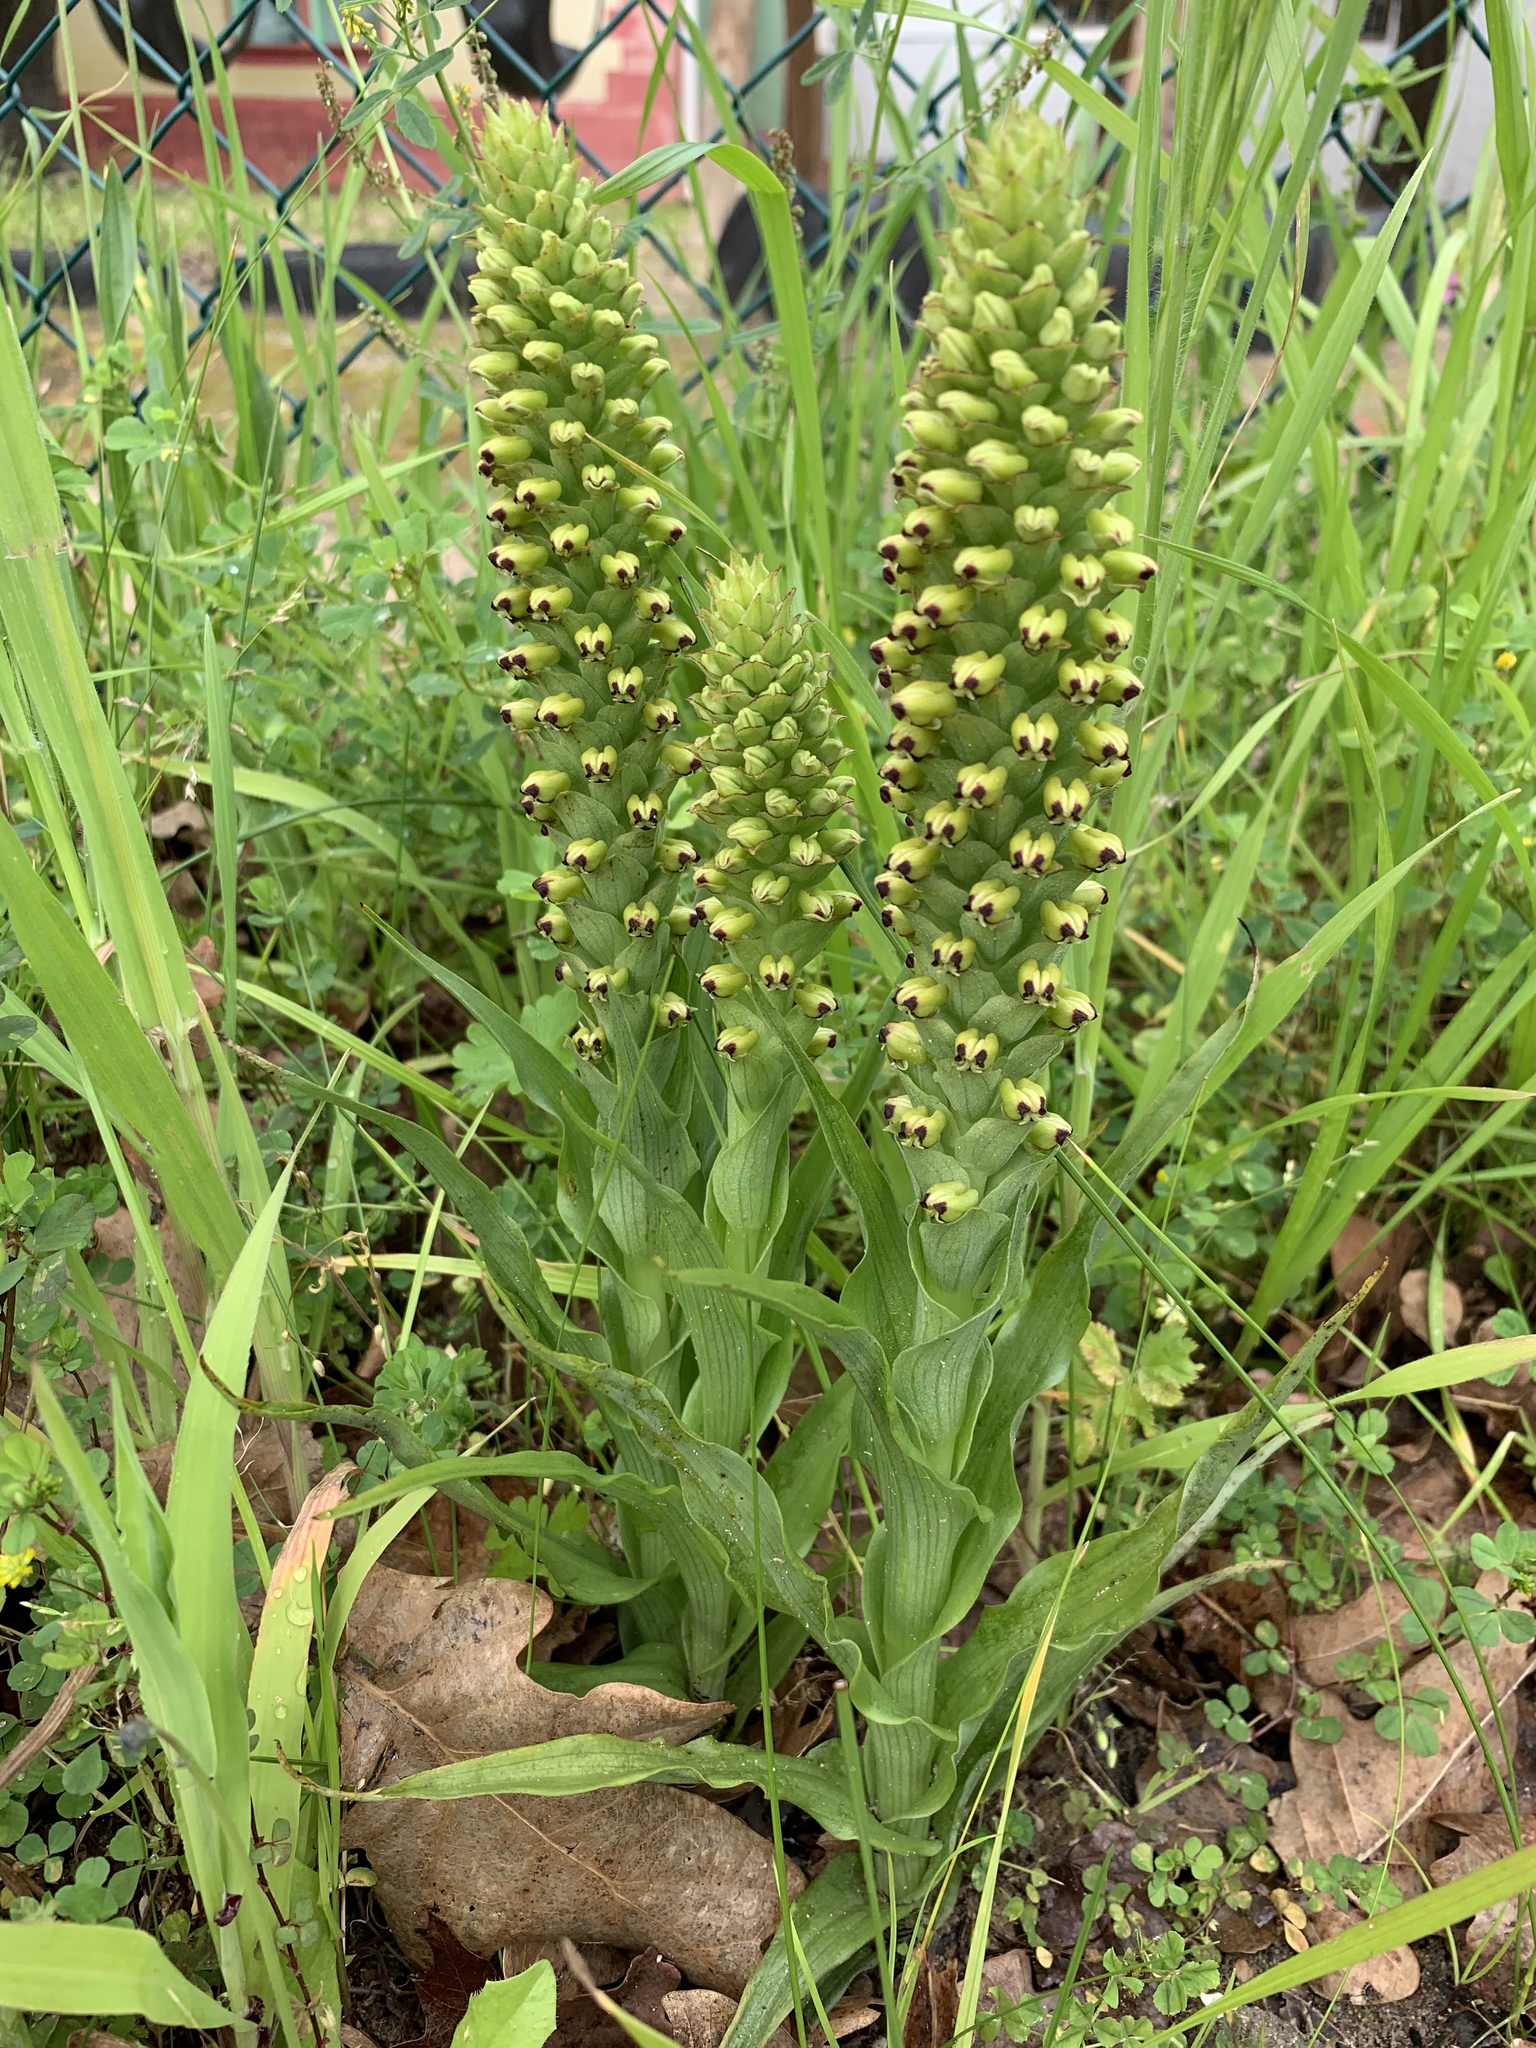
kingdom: Plantae
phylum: Tracheophyta
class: Liliopsida
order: Asparagales
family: Orchidaceae
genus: Corycium
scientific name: Corycium orobanchoides
